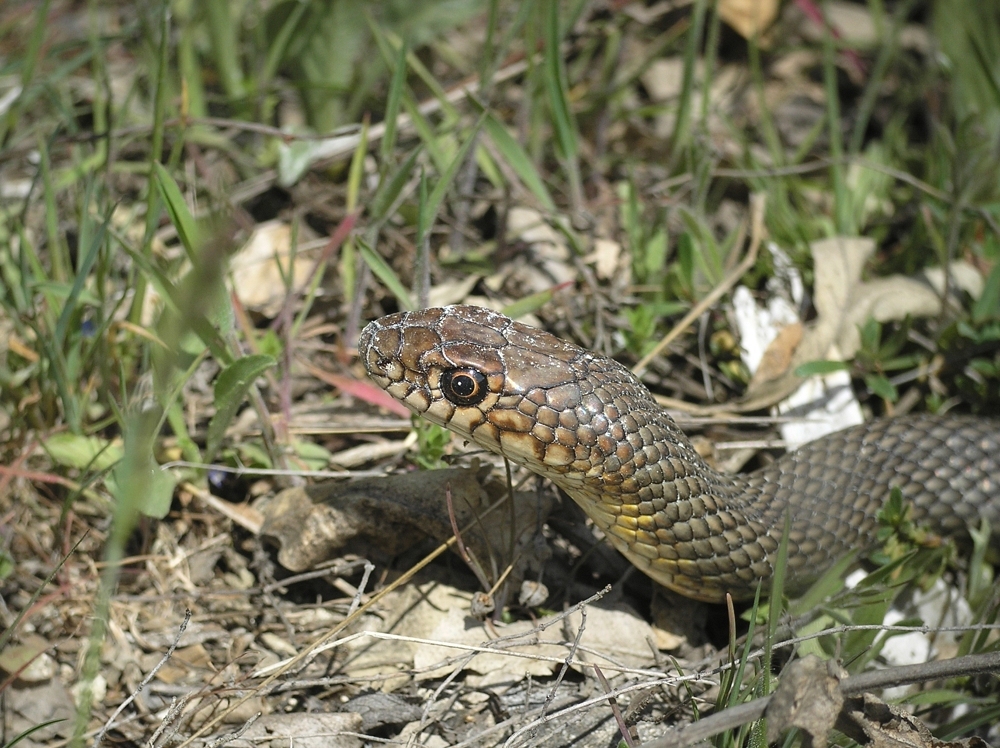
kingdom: Animalia
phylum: Chordata
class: Squamata
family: Colubridae
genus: Dolichophis
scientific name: Dolichophis caspius
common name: Large whip snake
